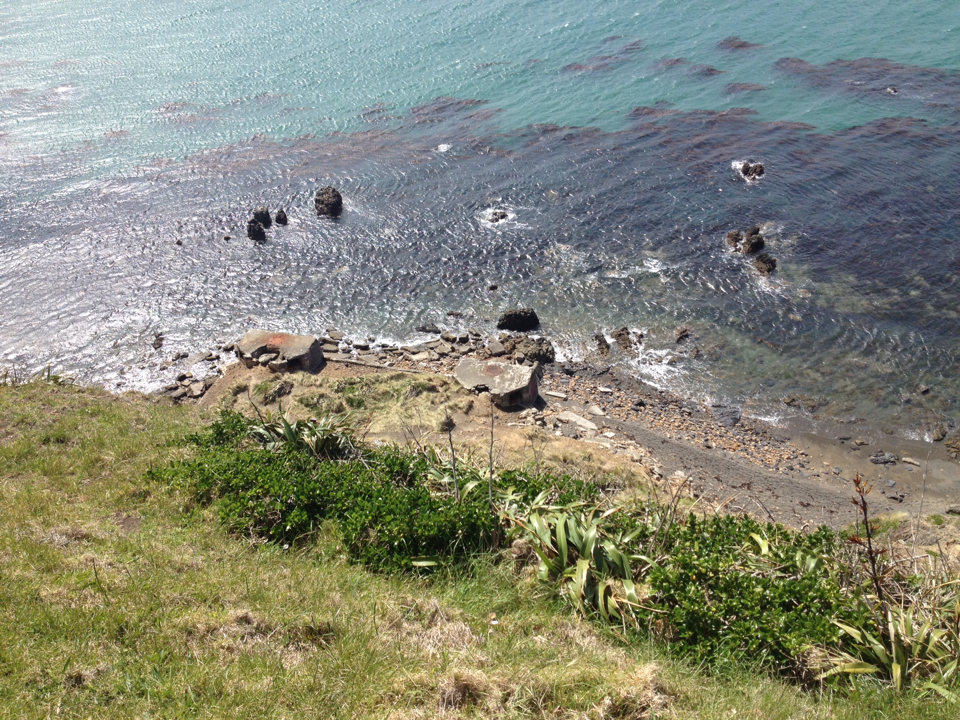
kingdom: Plantae
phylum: Tracheophyta
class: Liliopsida
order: Poales
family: Poaceae
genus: Calamagrostis
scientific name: Calamagrostis arenaria
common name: European beachgrass
